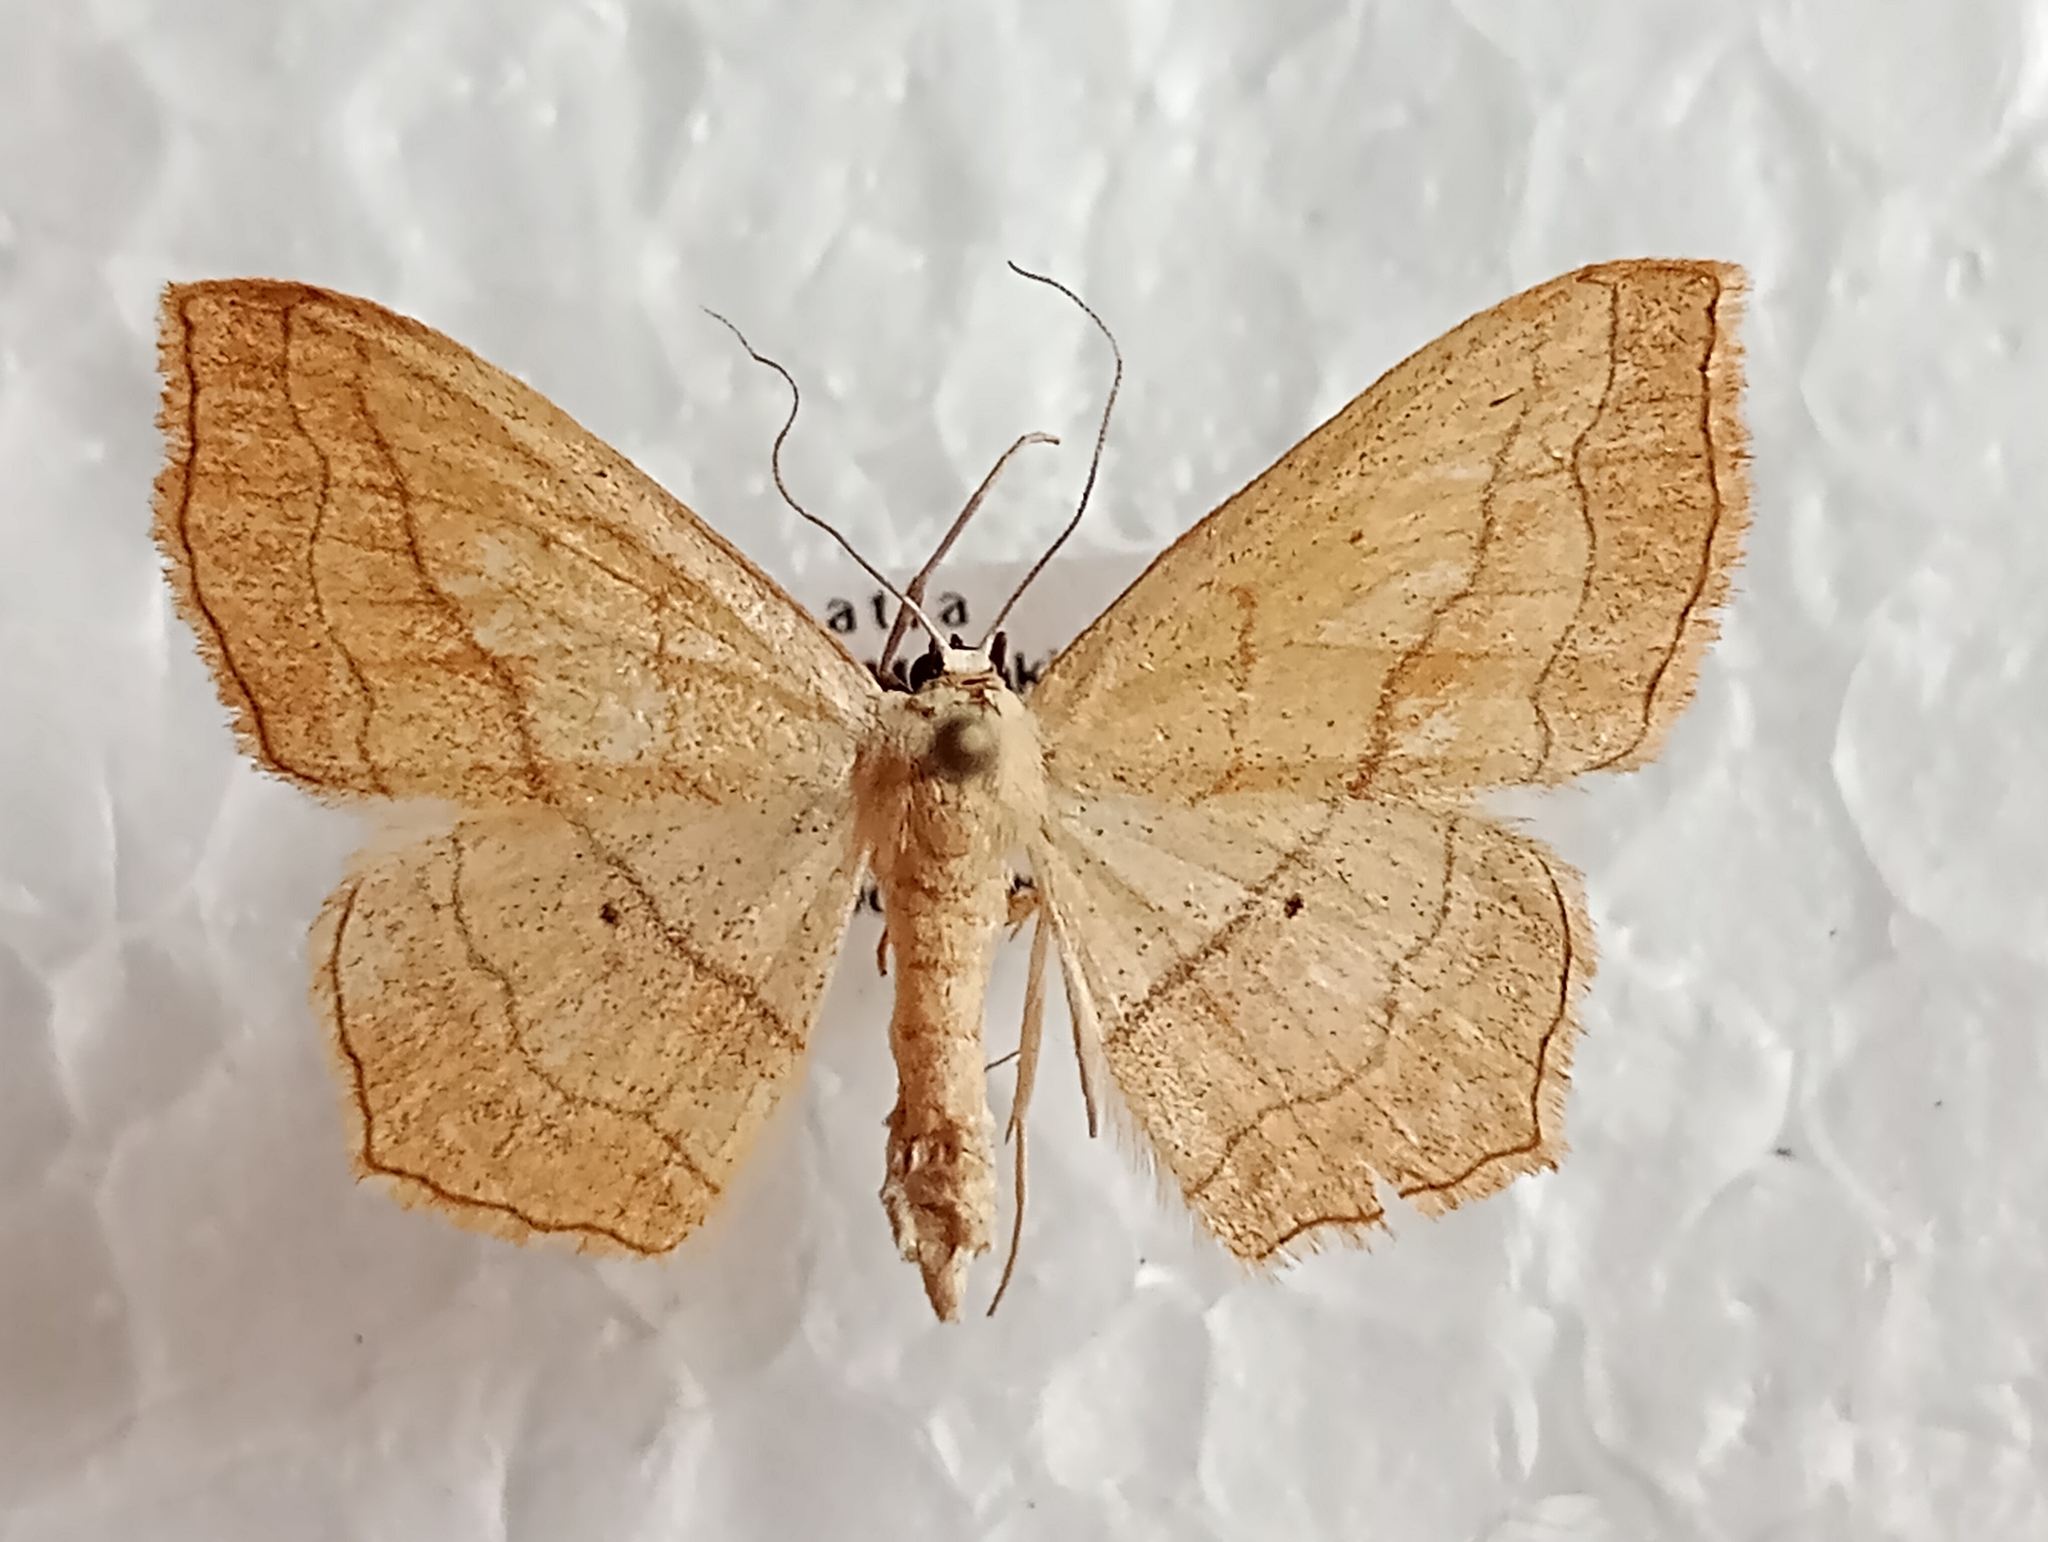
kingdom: Animalia
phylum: Arthropoda
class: Insecta
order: Lepidoptera
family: Geometridae
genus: Scopula
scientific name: Scopula imitaria
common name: Small blood-vein
